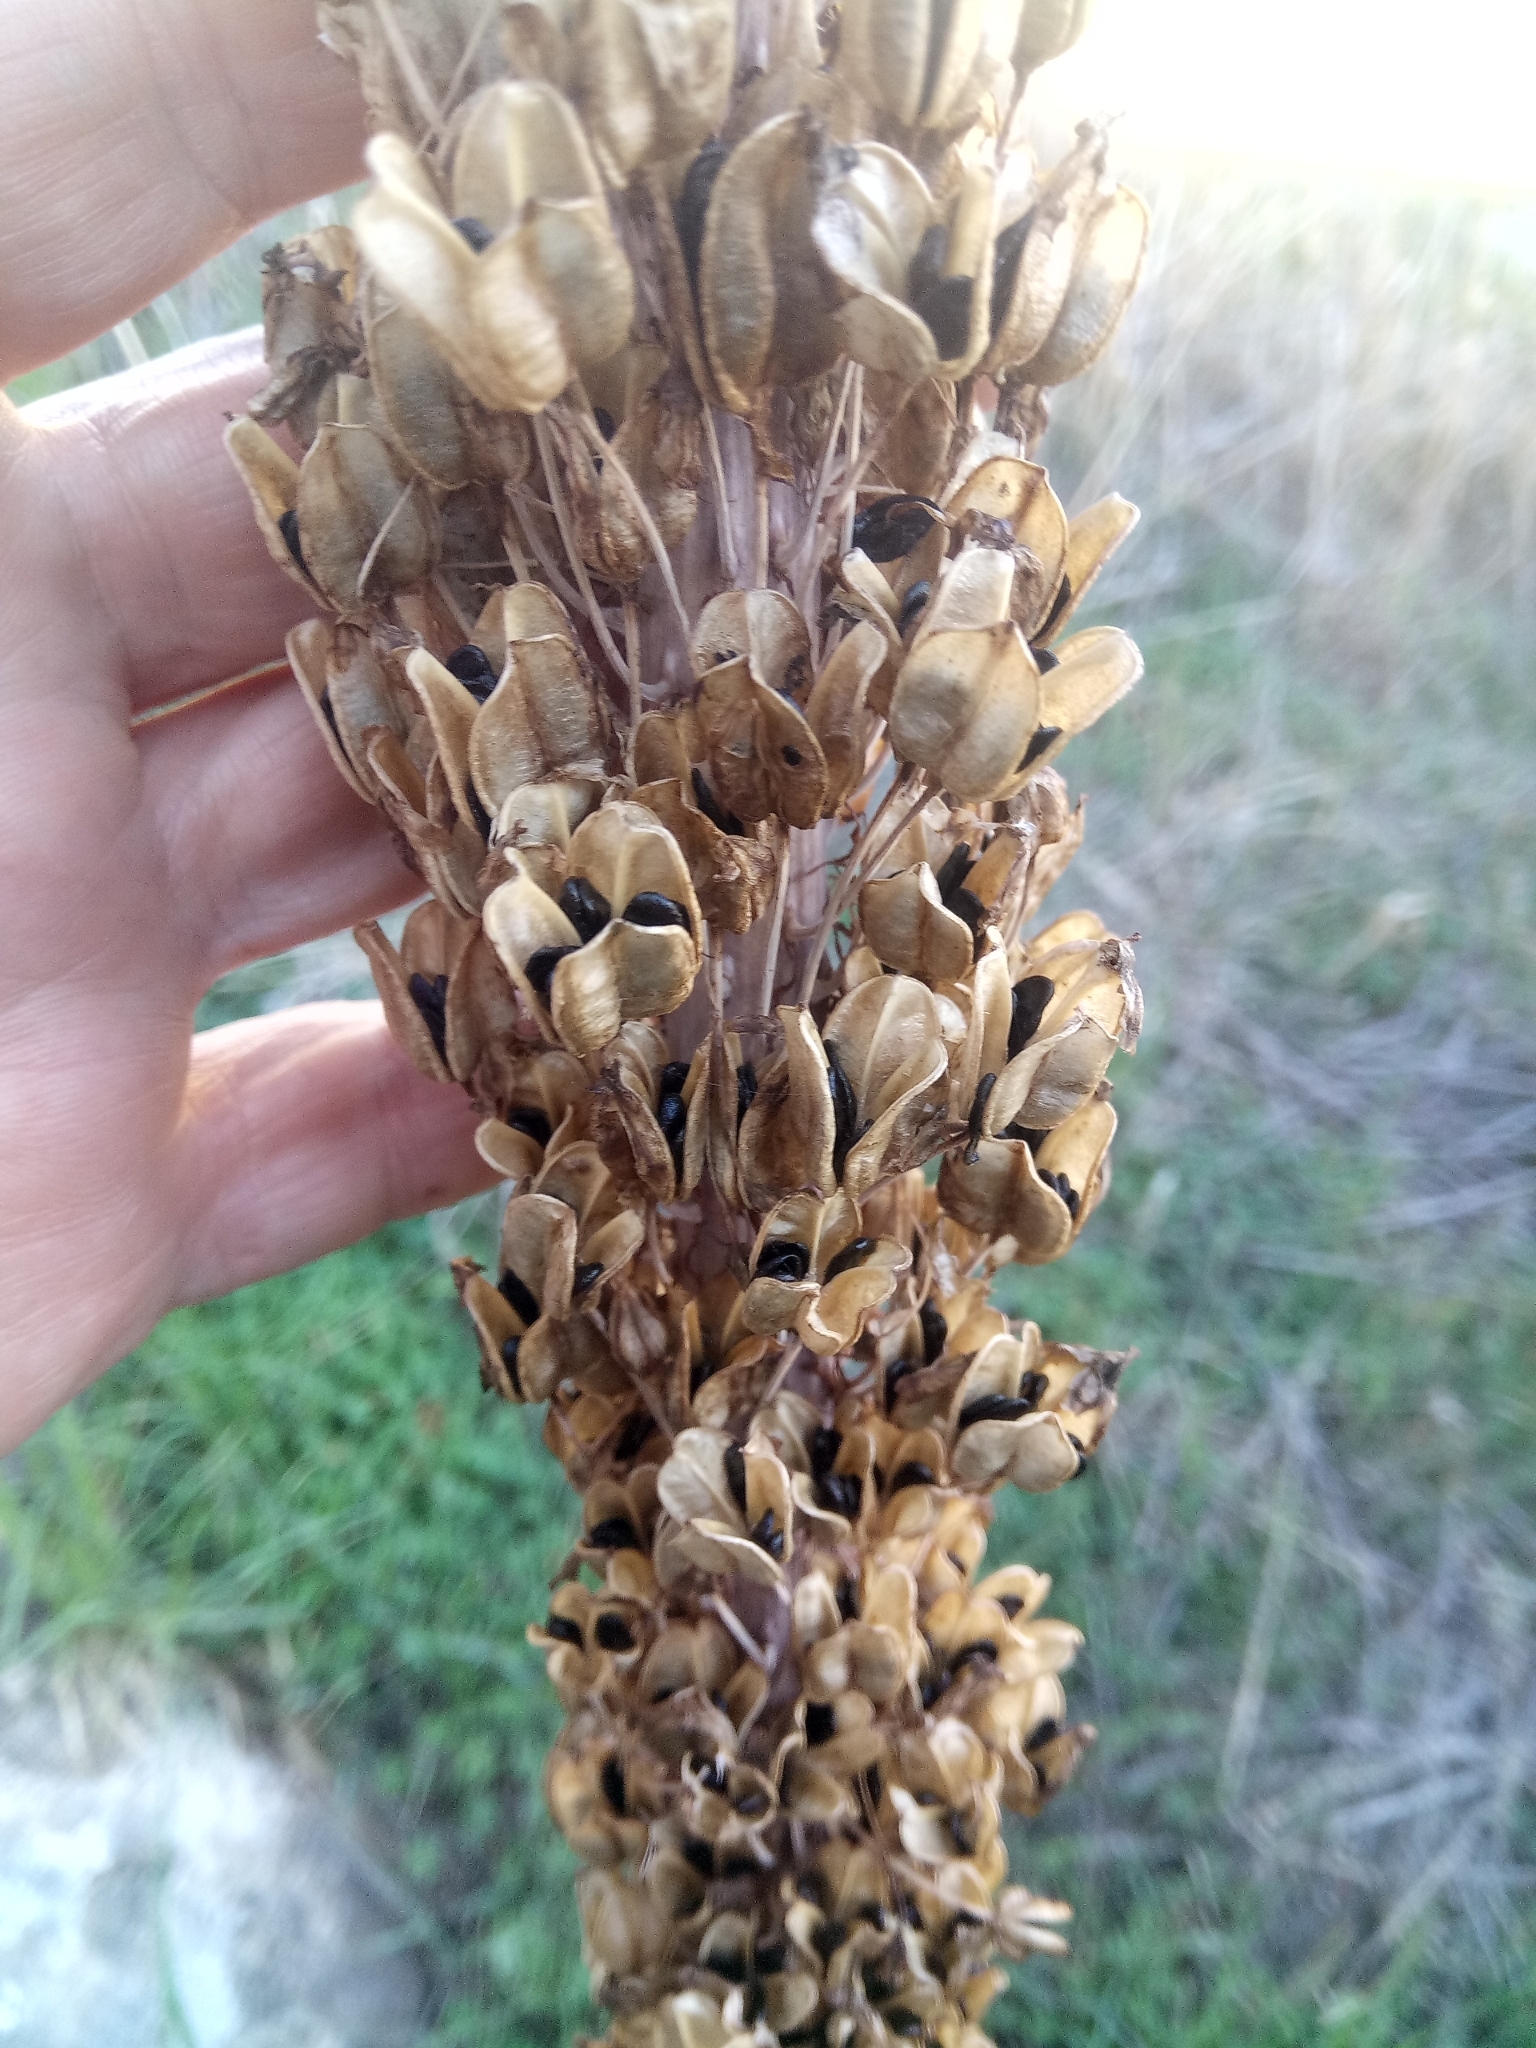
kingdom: Plantae
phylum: Tracheophyta
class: Liliopsida
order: Asparagales
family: Asparagaceae
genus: Drimia
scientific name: Drimia numidica
